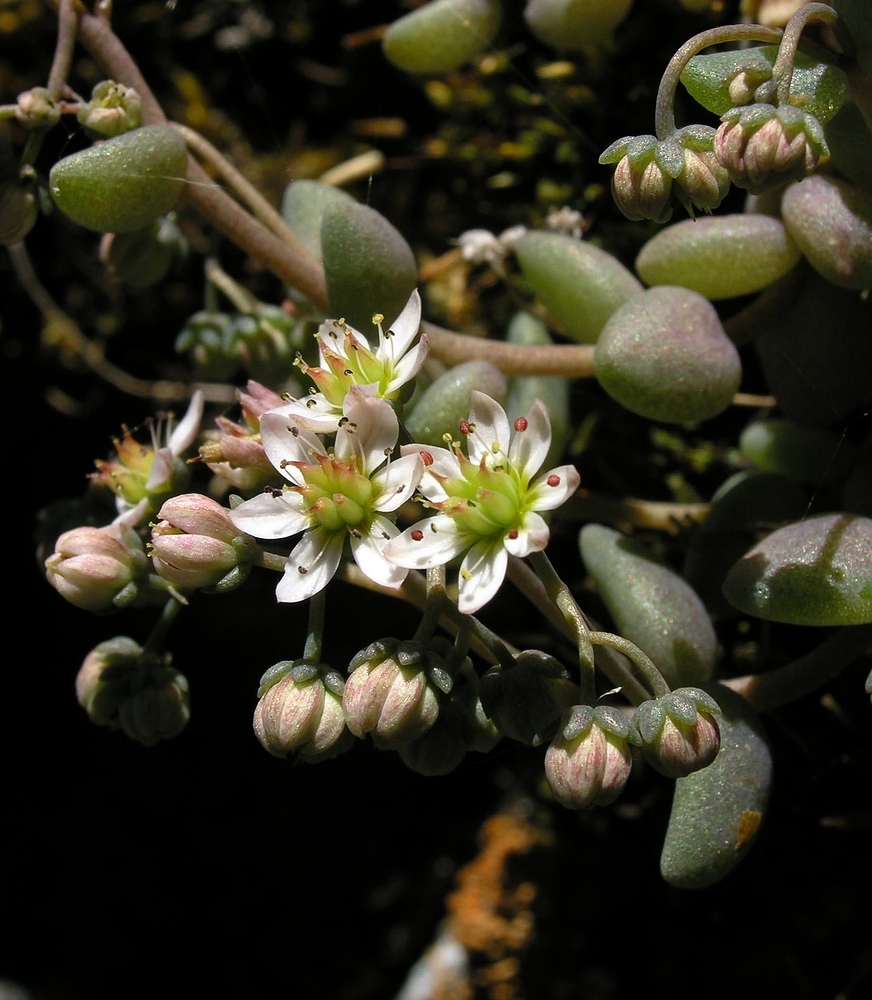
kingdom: Plantae
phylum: Tracheophyta
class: Magnoliopsida
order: Saxifragales
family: Crassulaceae
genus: Sedum
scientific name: Sedum dasyphyllum
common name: Thick-leaf stonecrop
